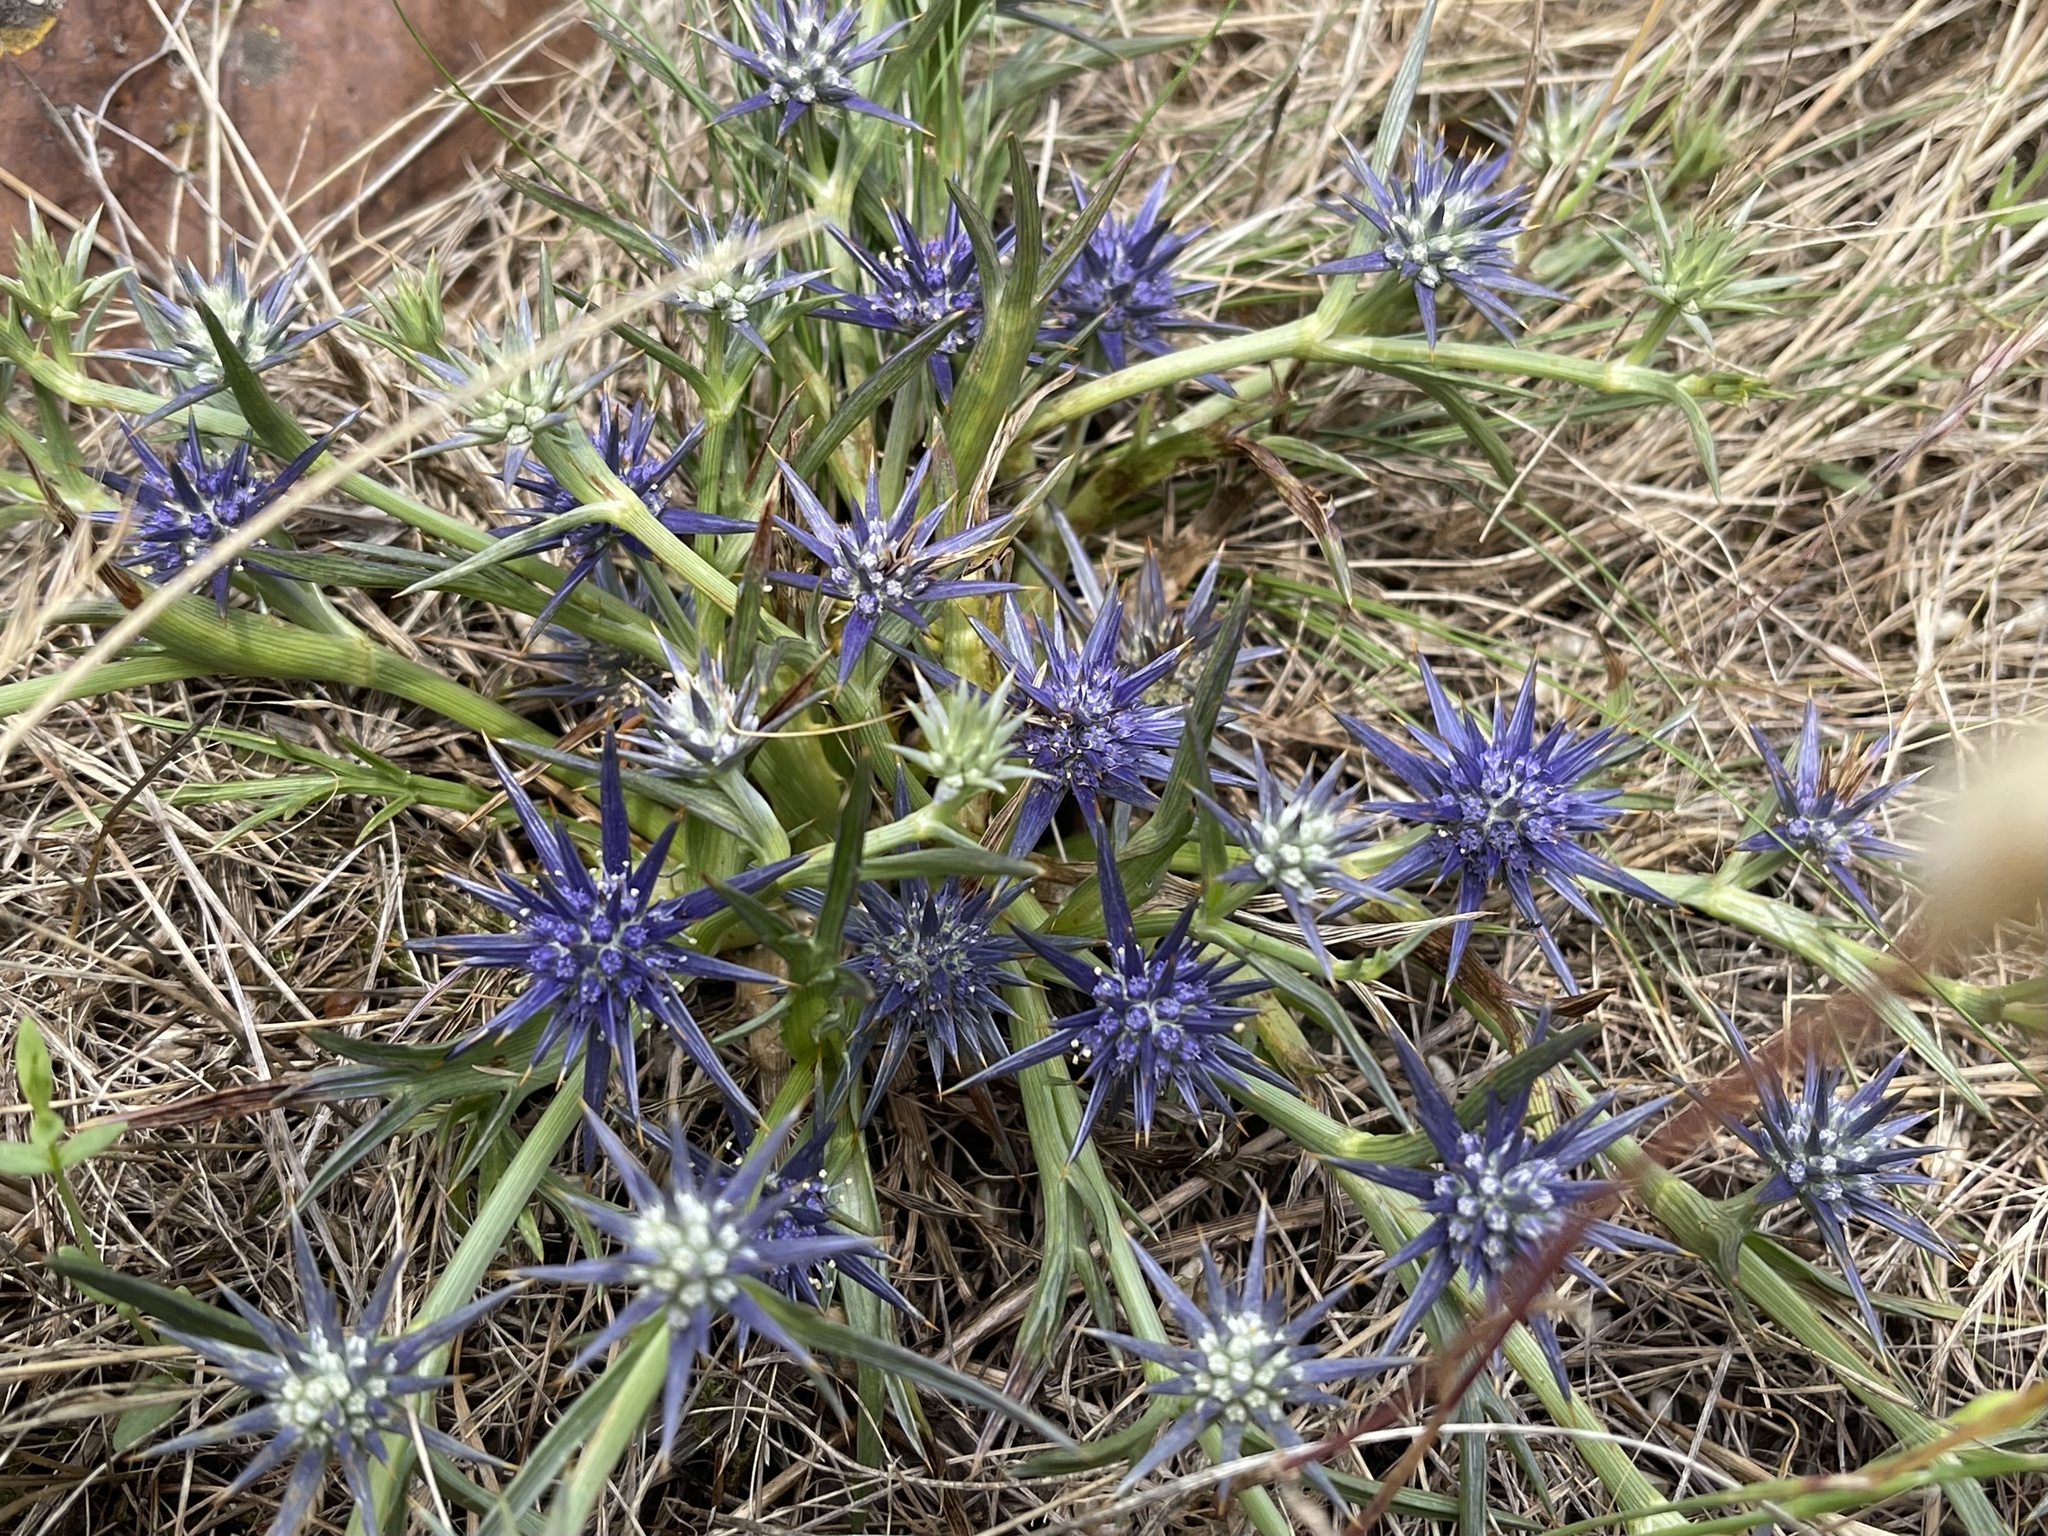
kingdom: Plantae
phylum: Tracheophyta
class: Magnoliopsida
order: Apiales
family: Apiaceae
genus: Eryngium
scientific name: Eryngium ovinum
